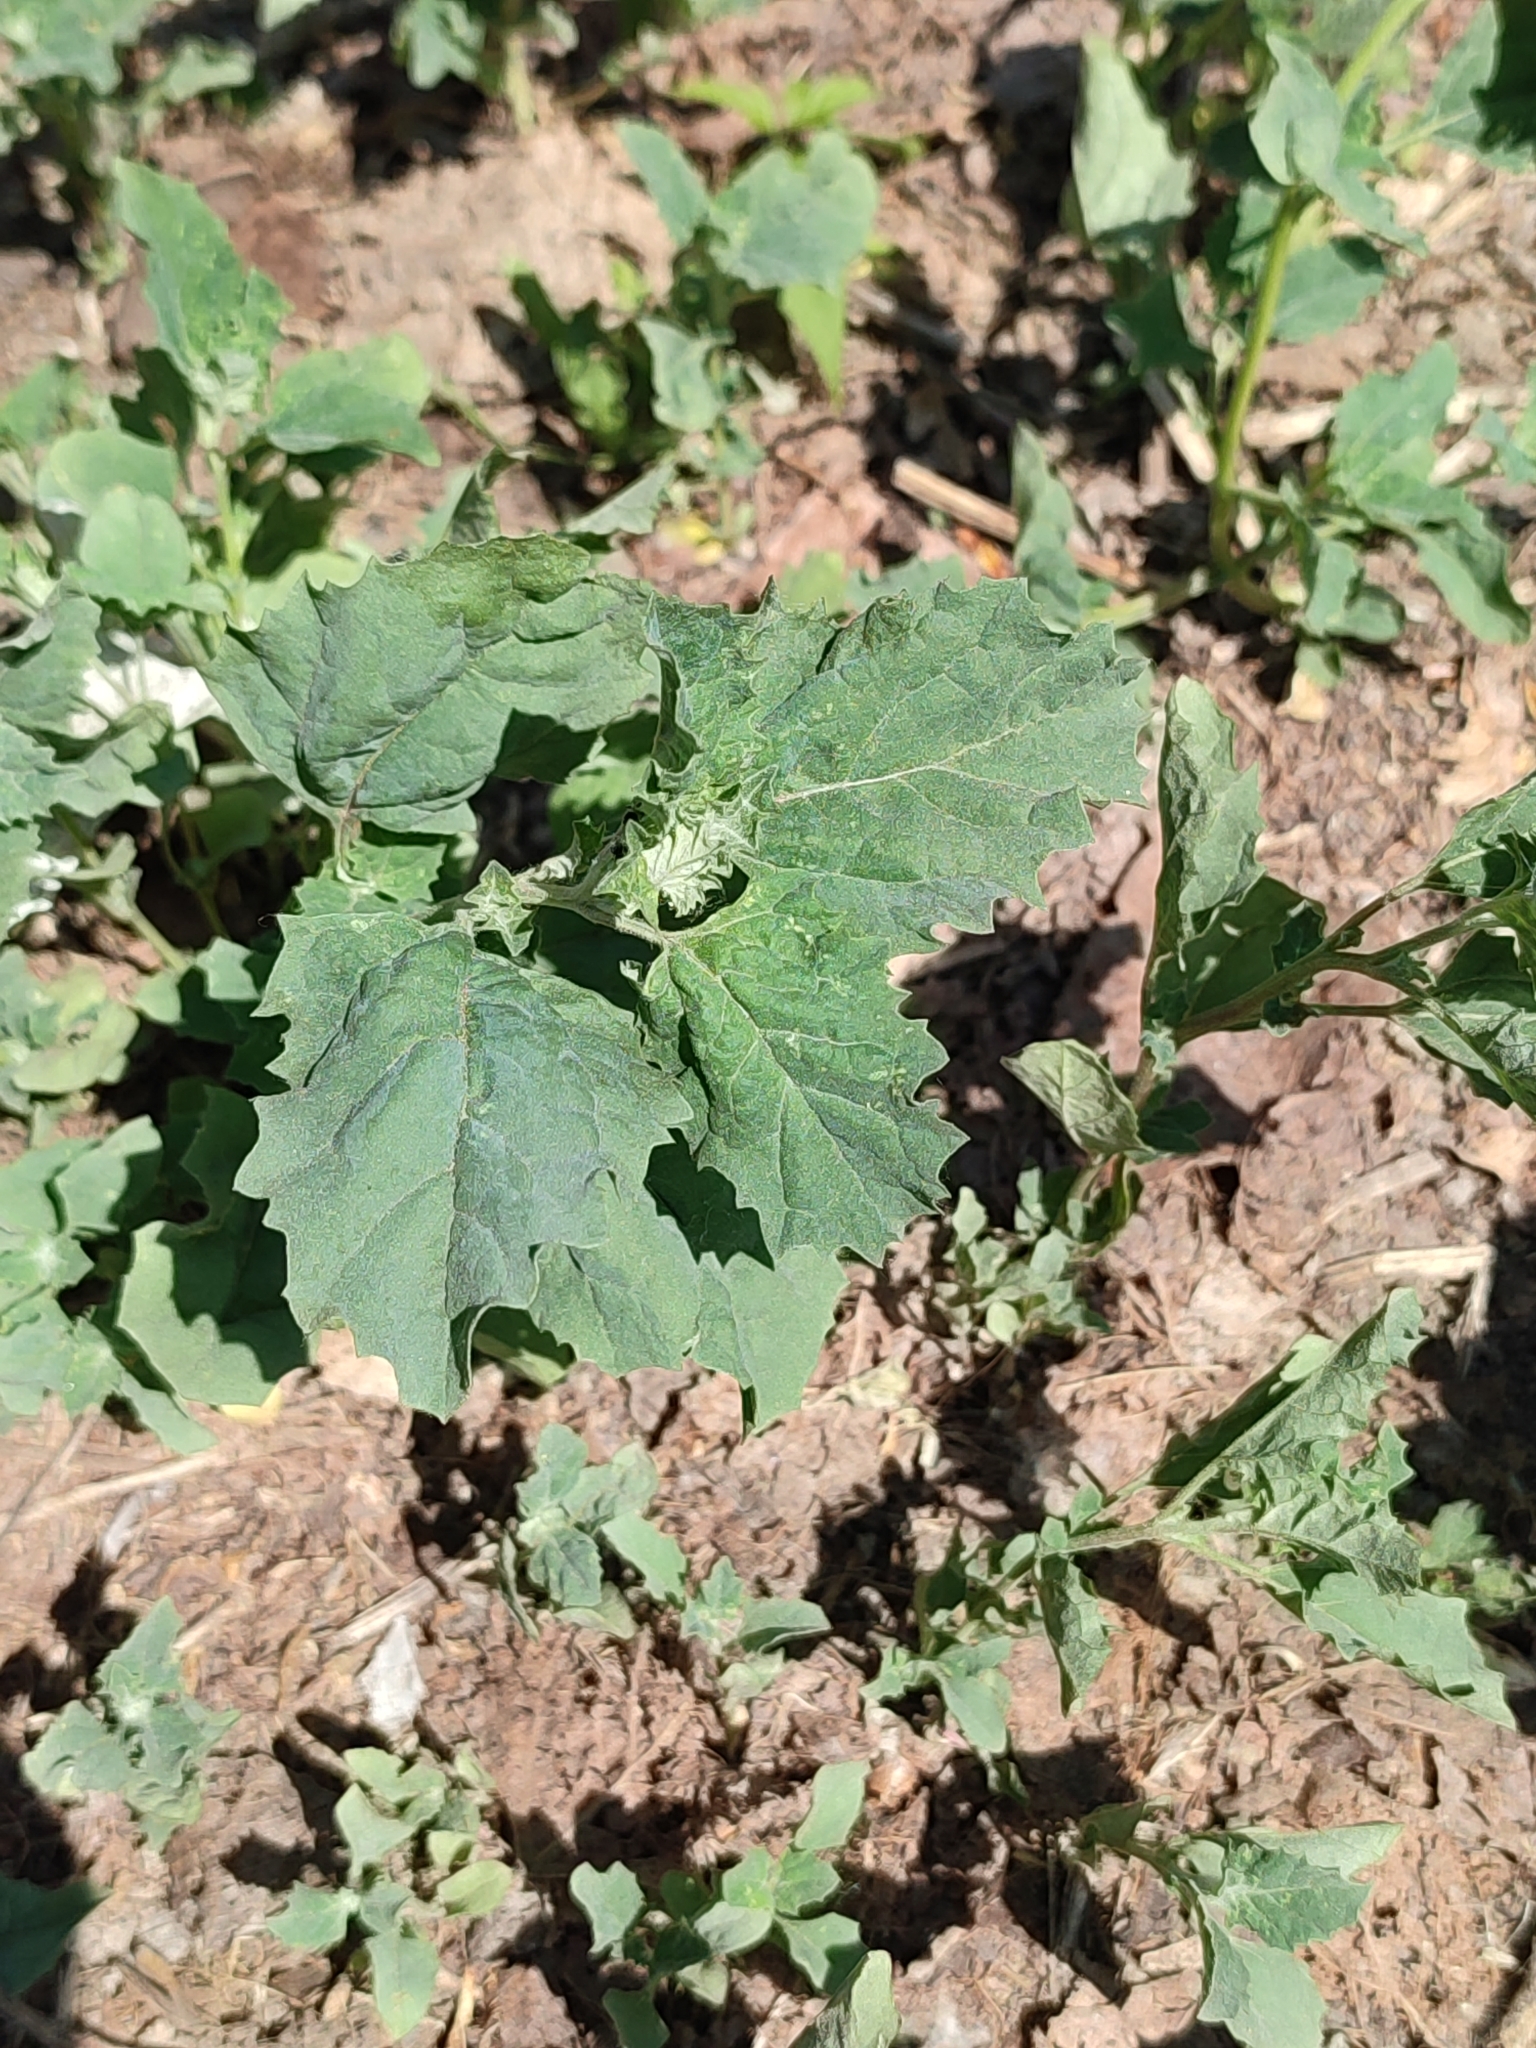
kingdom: Plantae
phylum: Tracheophyta
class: Magnoliopsida
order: Caryophyllales
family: Amaranthaceae
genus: Atriplex
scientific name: Atriplex tatarica
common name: Tatarian orache
